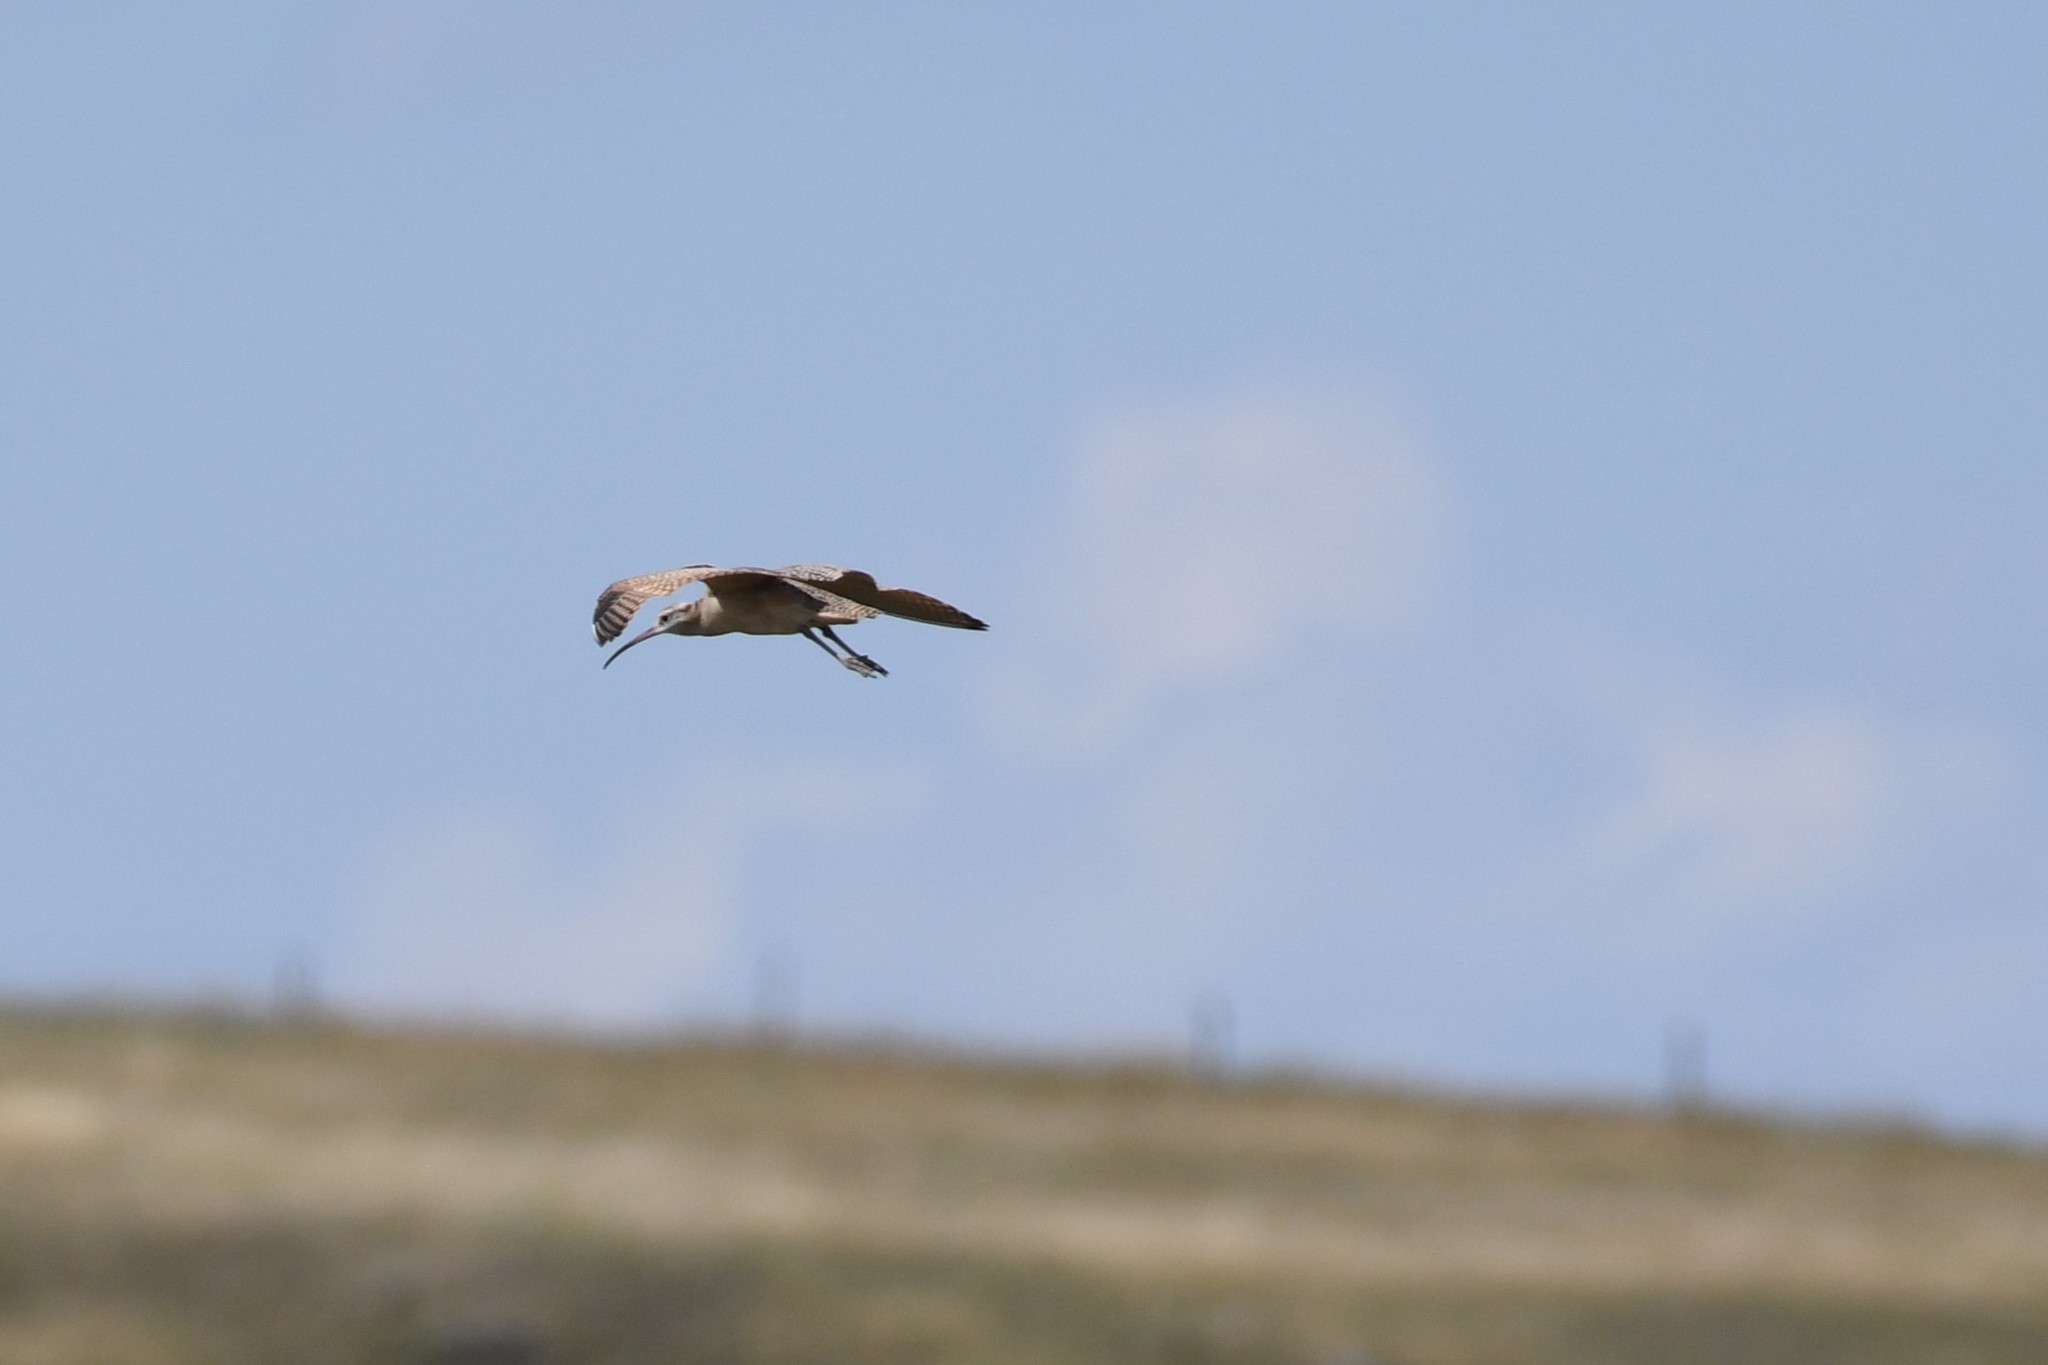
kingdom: Animalia
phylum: Chordata
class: Aves
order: Charadriiformes
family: Scolopacidae
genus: Numenius
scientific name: Numenius americanus
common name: Long-billed curlew
